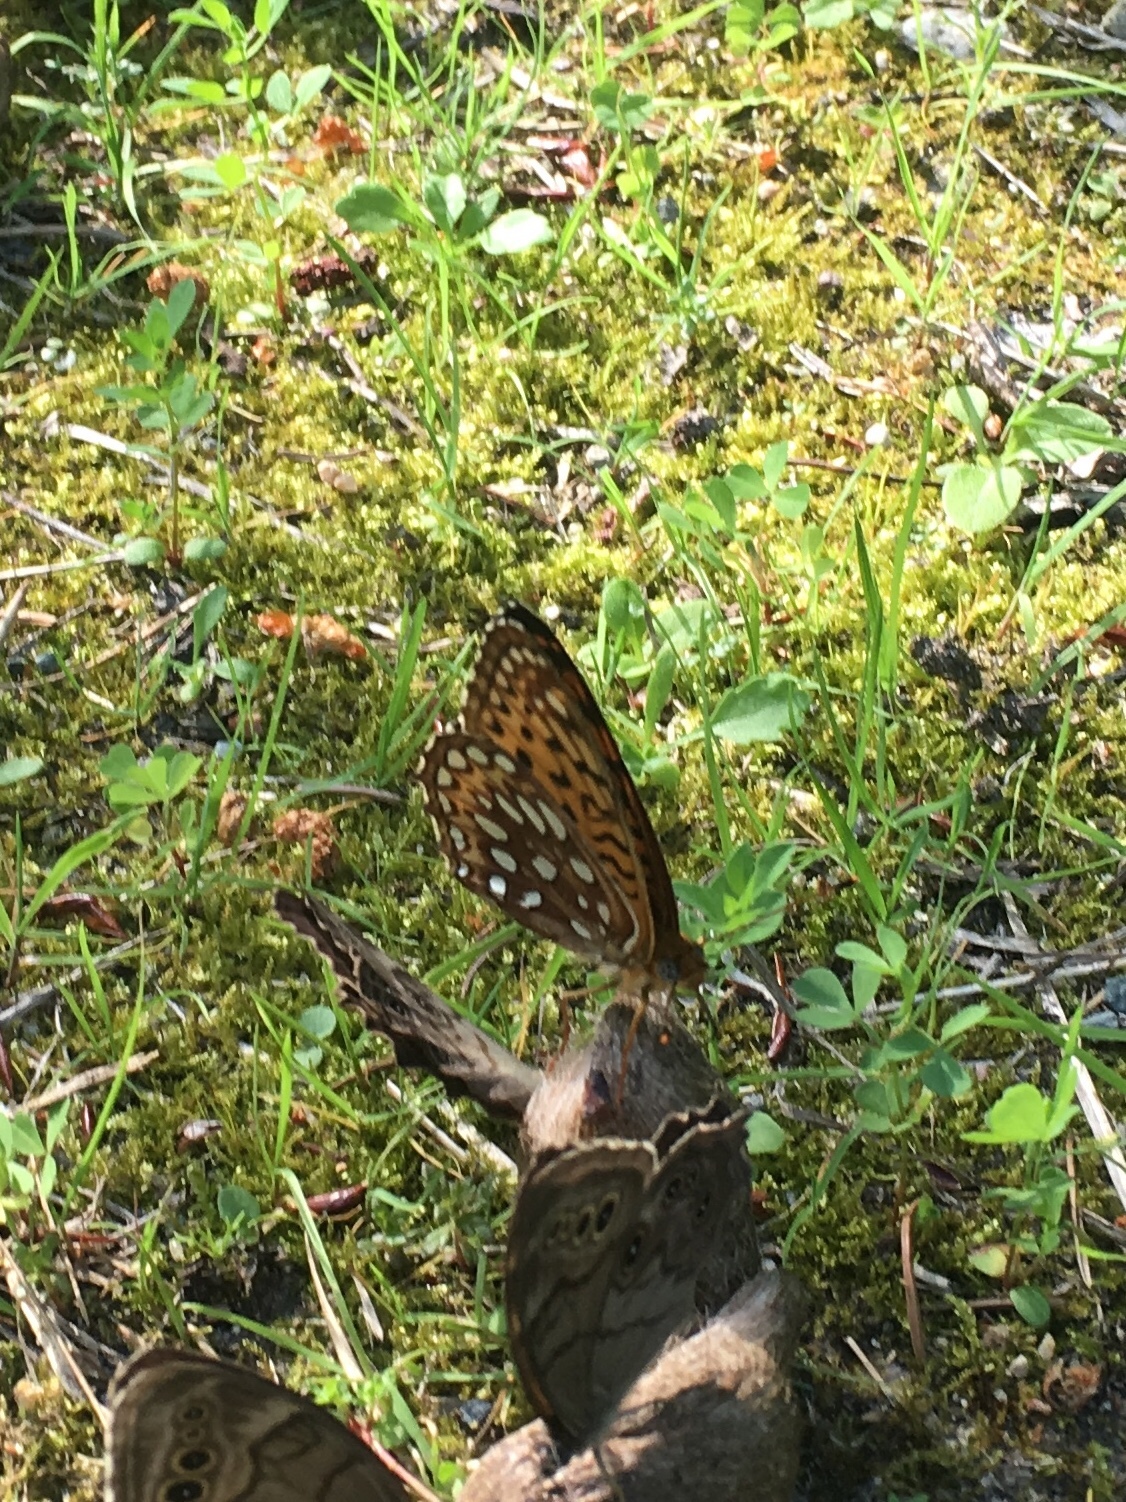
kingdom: Animalia
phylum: Arthropoda
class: Insecta
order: Lepidoptera
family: Nymphalidae
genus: Speyeria
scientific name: Speyeria atlantis
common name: Atlantis fritillary
